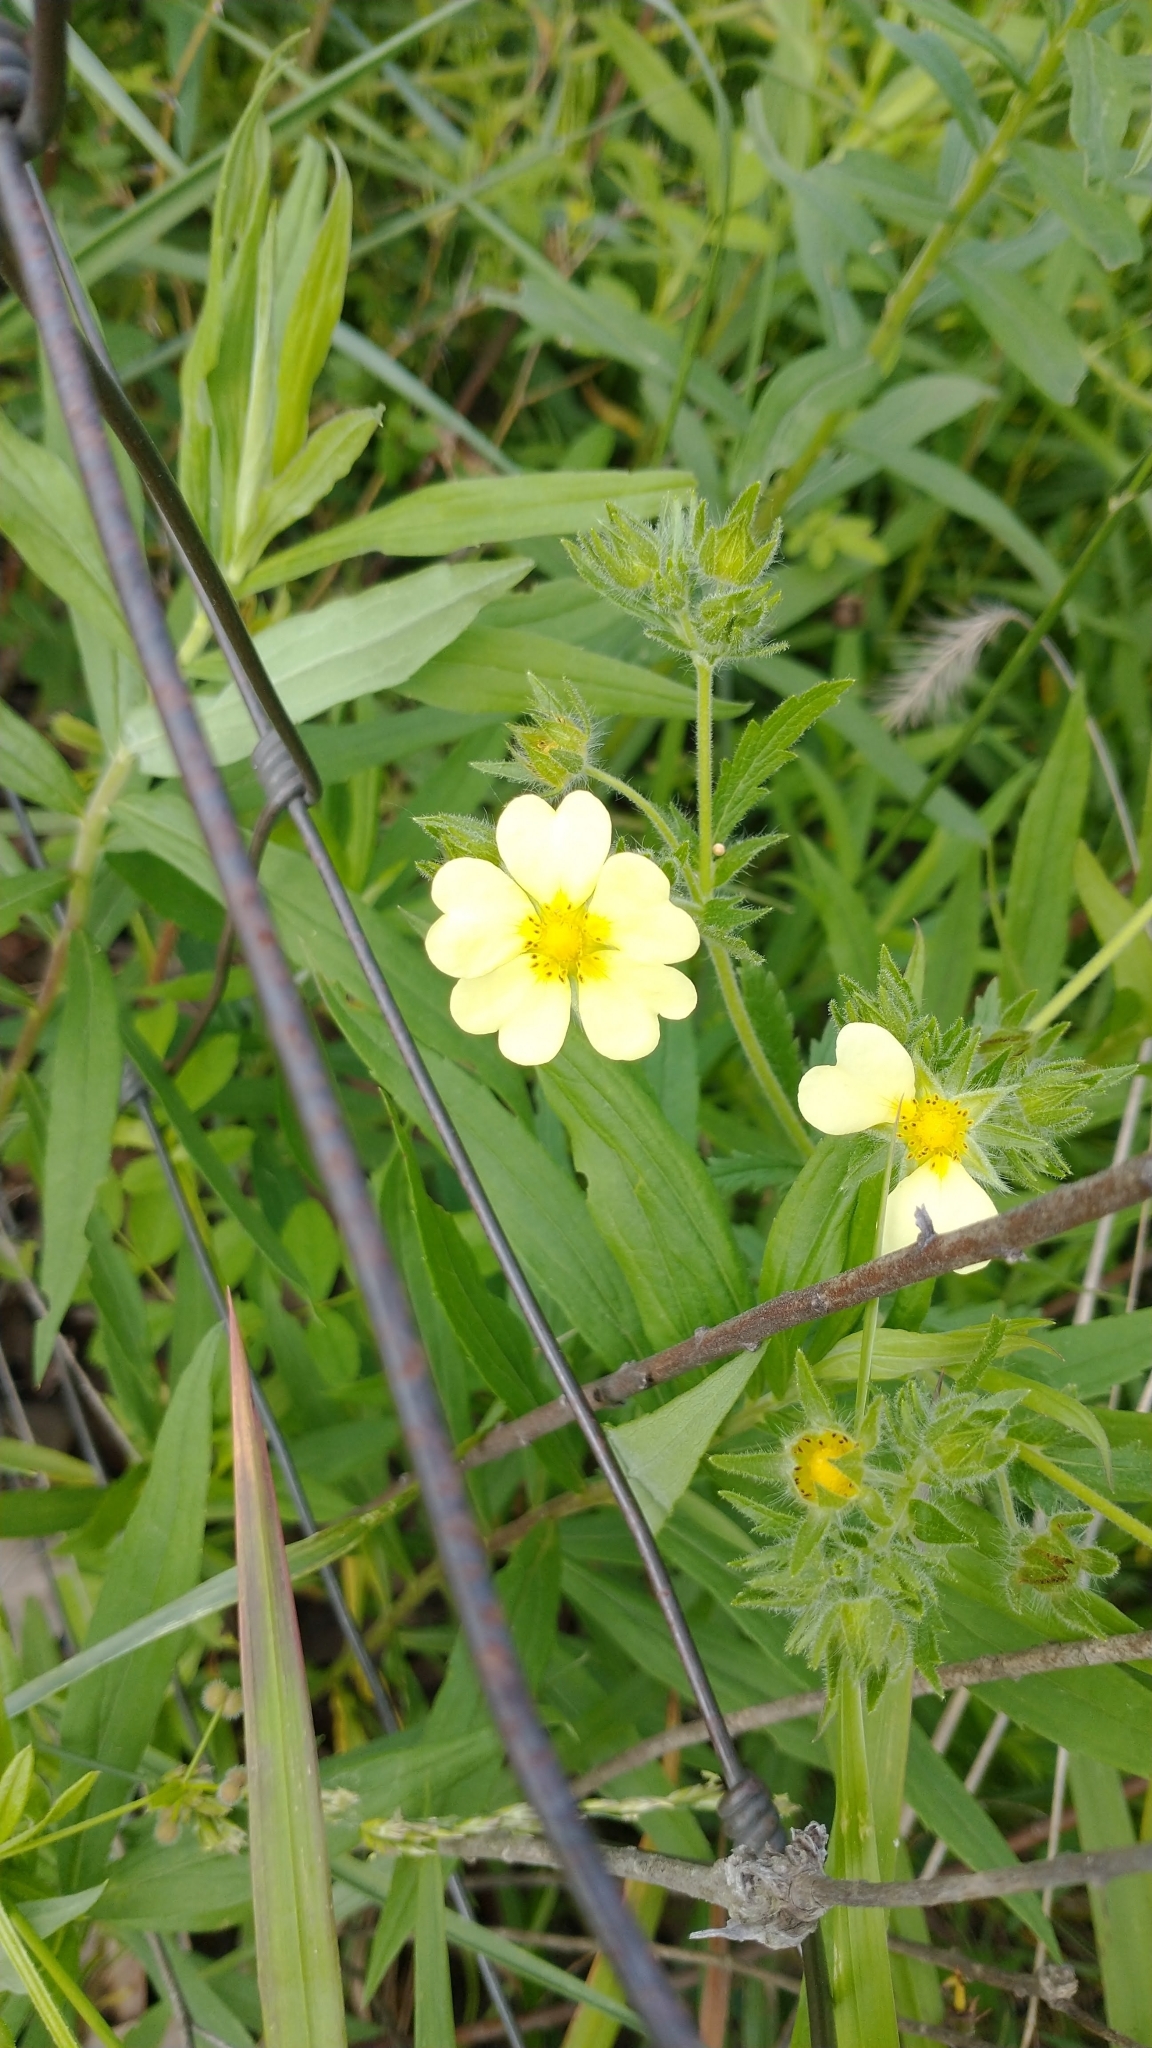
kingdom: Plantae
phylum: Tracheophyta
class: Magnoliopsida
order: Rosales
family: Rosaceae
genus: Potentilla
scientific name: Potentilla recta
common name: Sulphur cinquefoil
